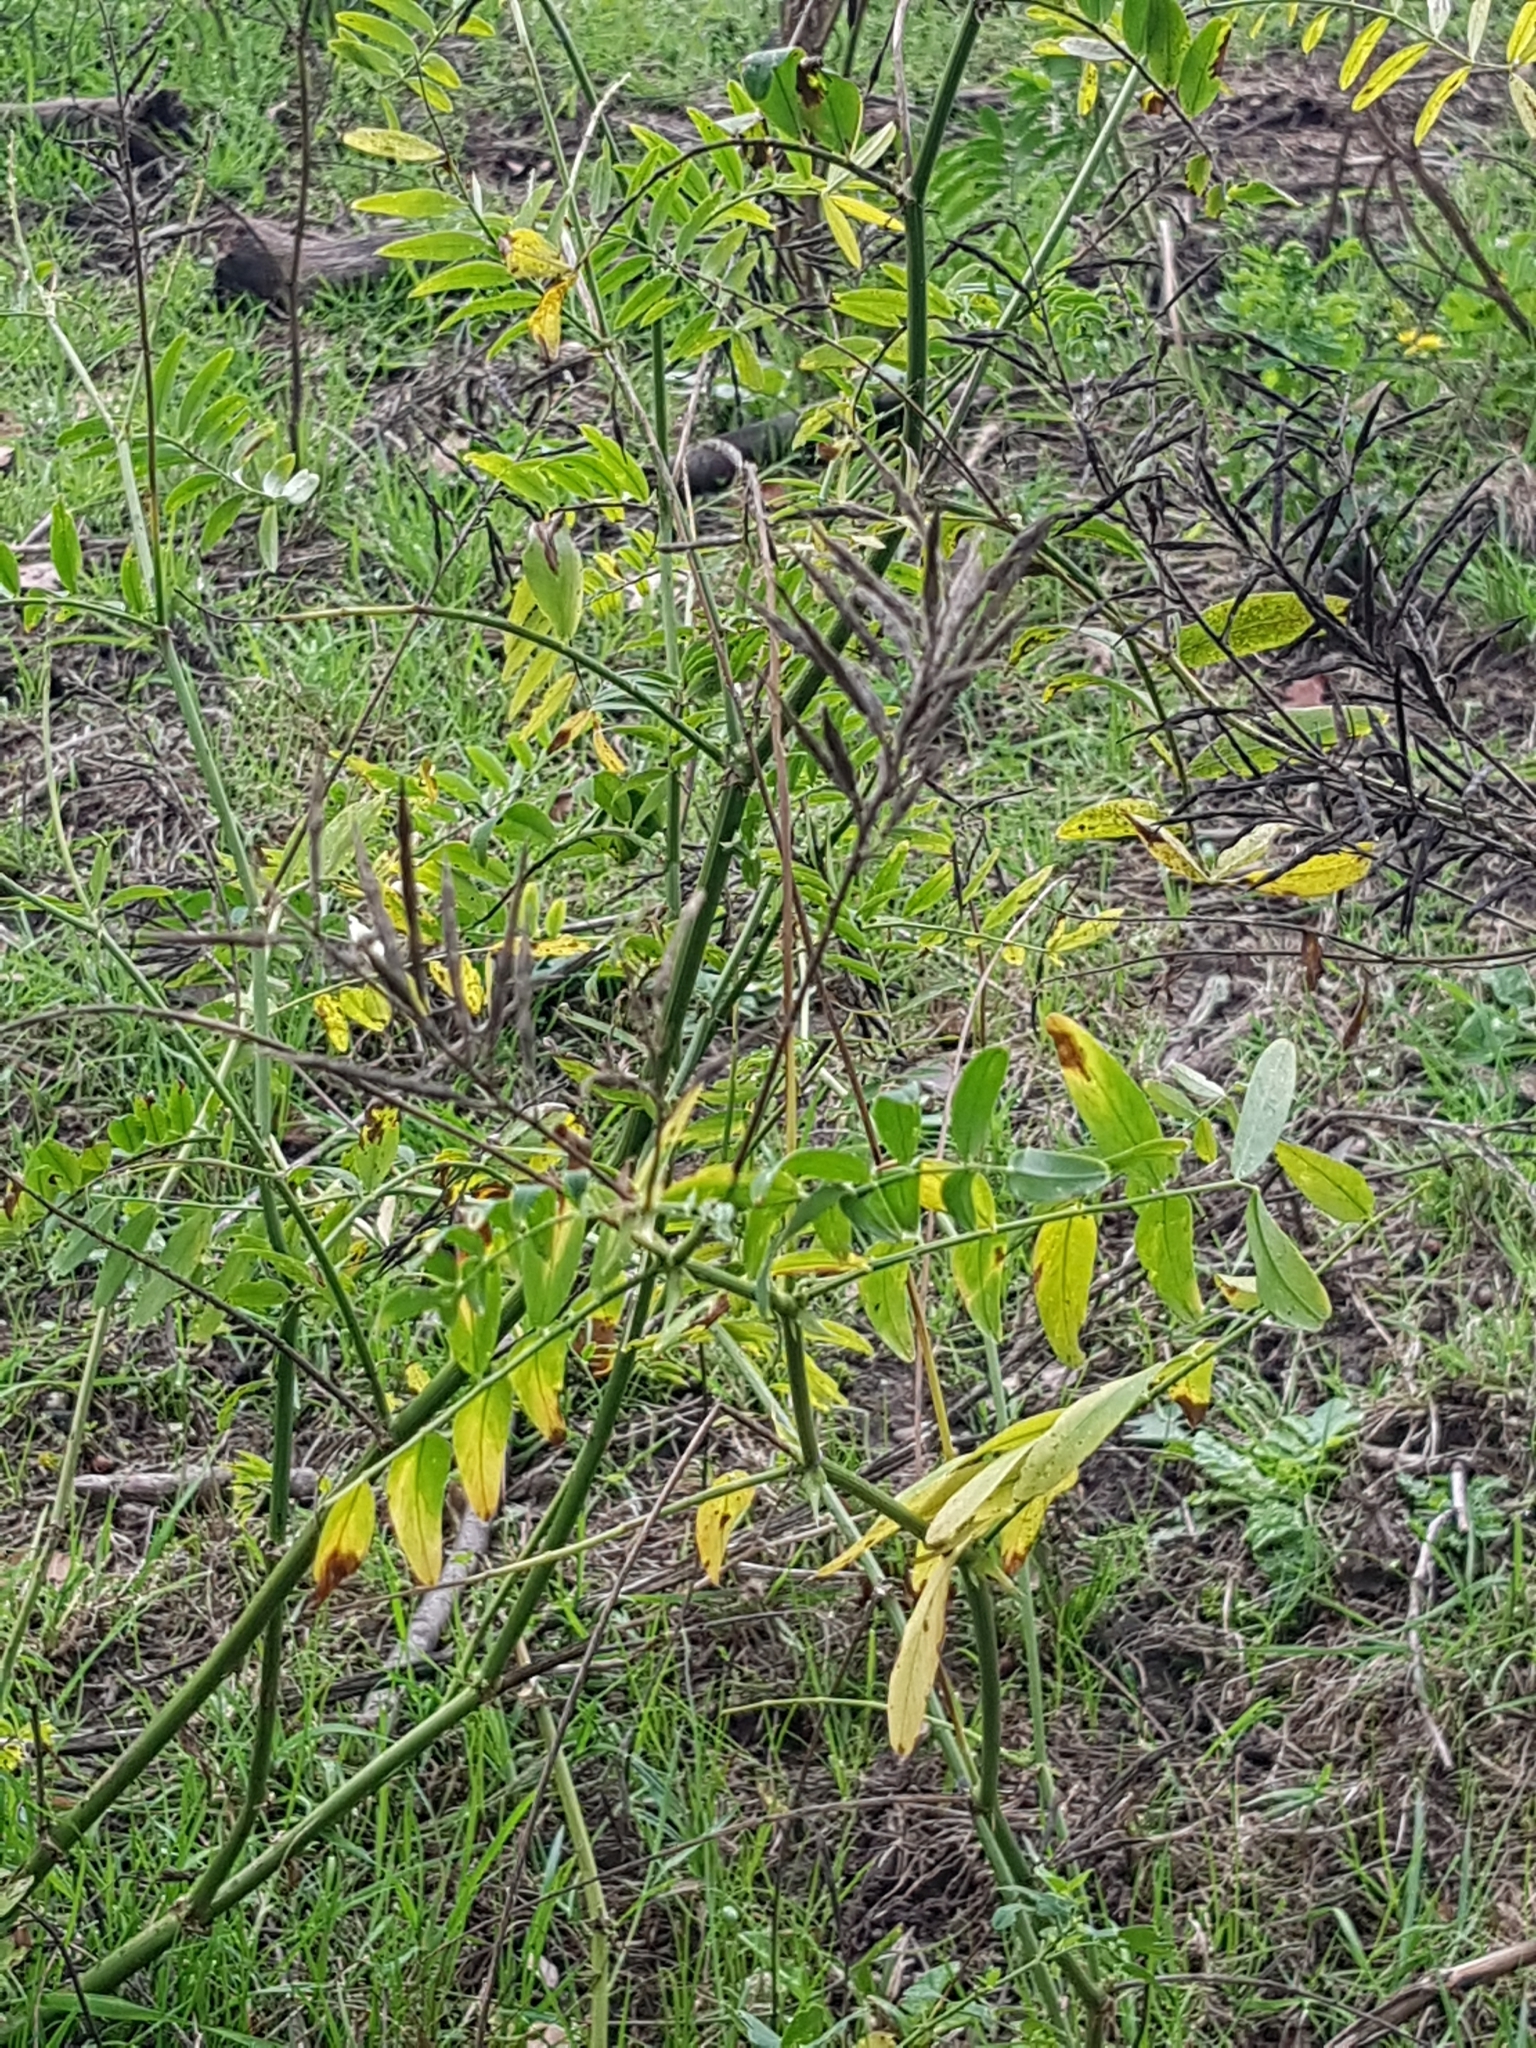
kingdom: Plantae
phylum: Tracheophyta
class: Magnoliopsida
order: Fabales
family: Fabaceae
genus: Galega
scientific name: Galega officinalis
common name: Goat's-rue
